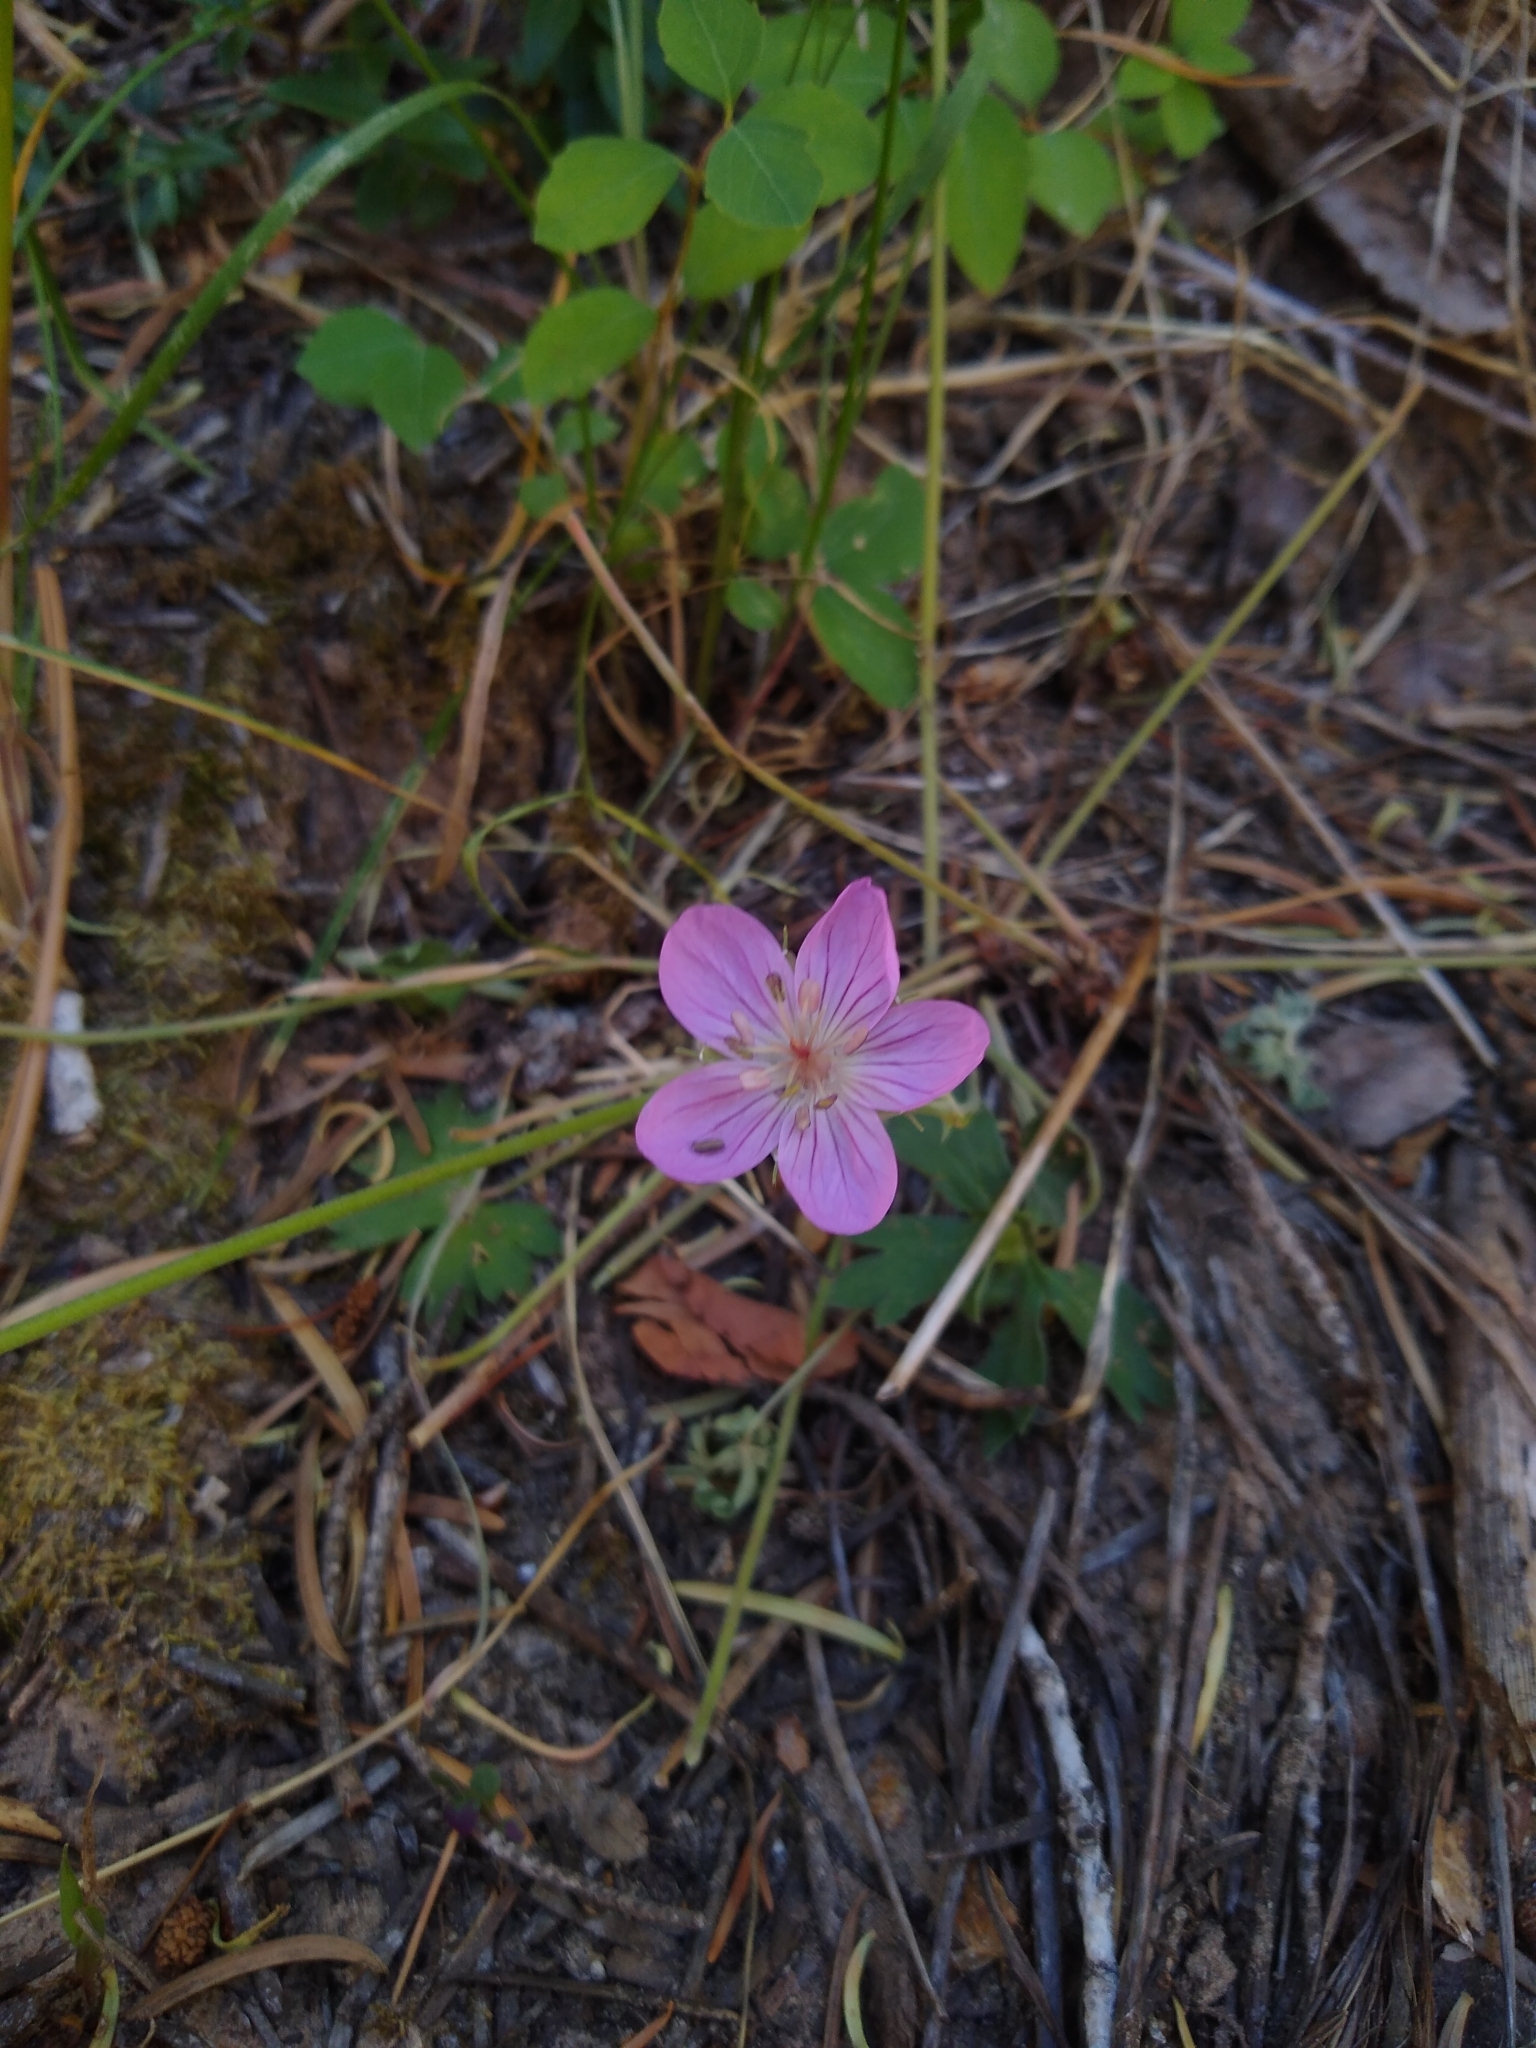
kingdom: Plantae
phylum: Tracheophyta
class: Magnoliopsida
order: Geraniales
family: Geraniaceae
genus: Geranium
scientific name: Geranium caespitosum
